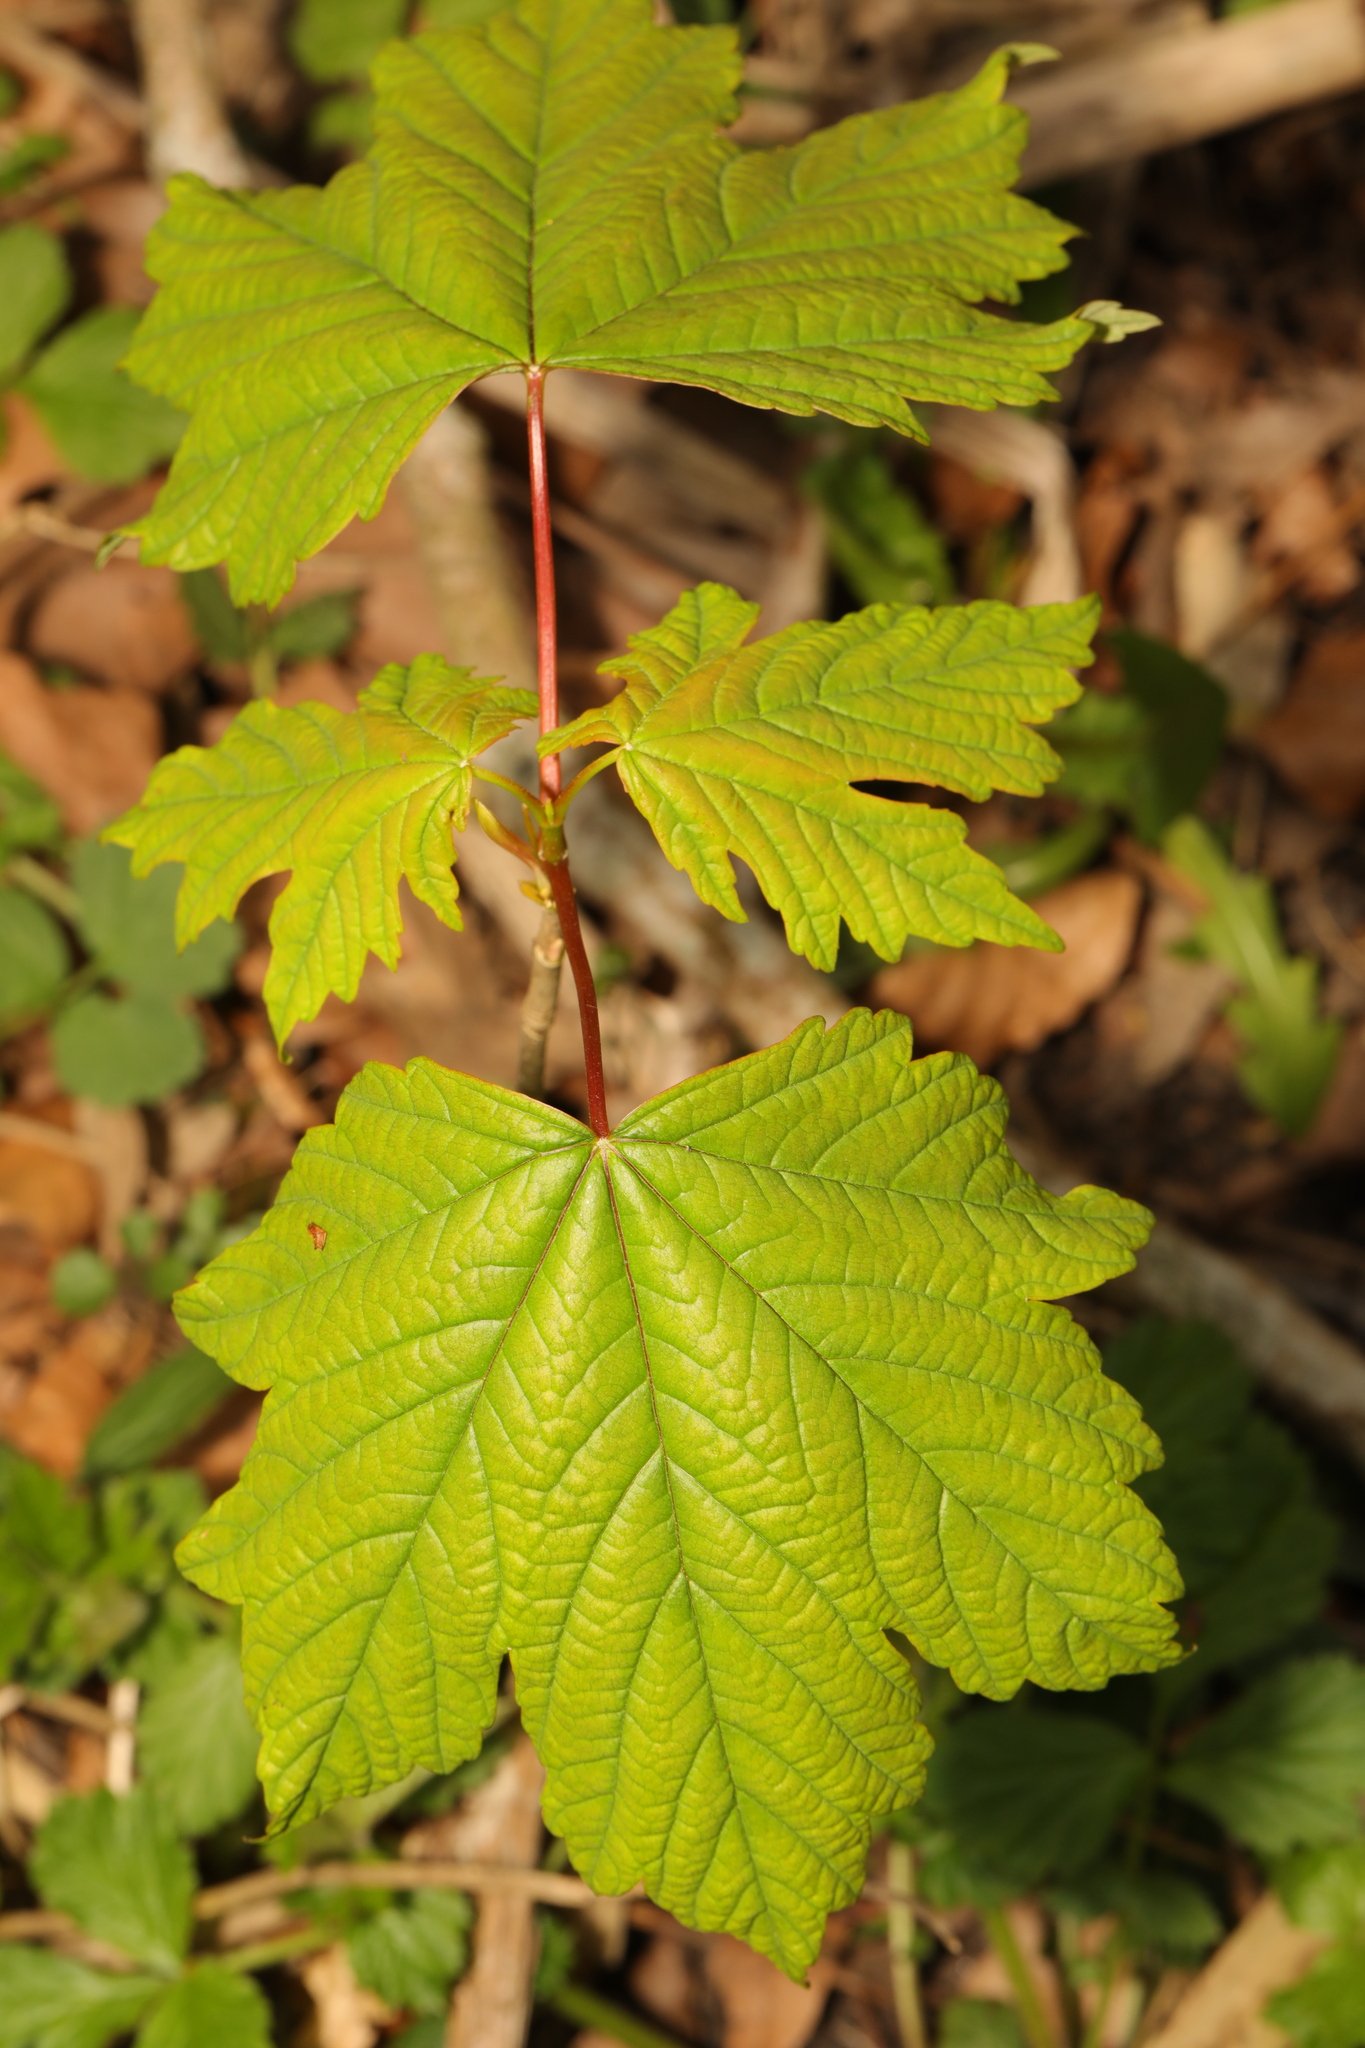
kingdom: Plantae
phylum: Tracheophyta
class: Magnoliopsida
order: Sapindales
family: Sapindaceae
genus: Acer
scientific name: Acer pseudoplatanus
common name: Sycamore
